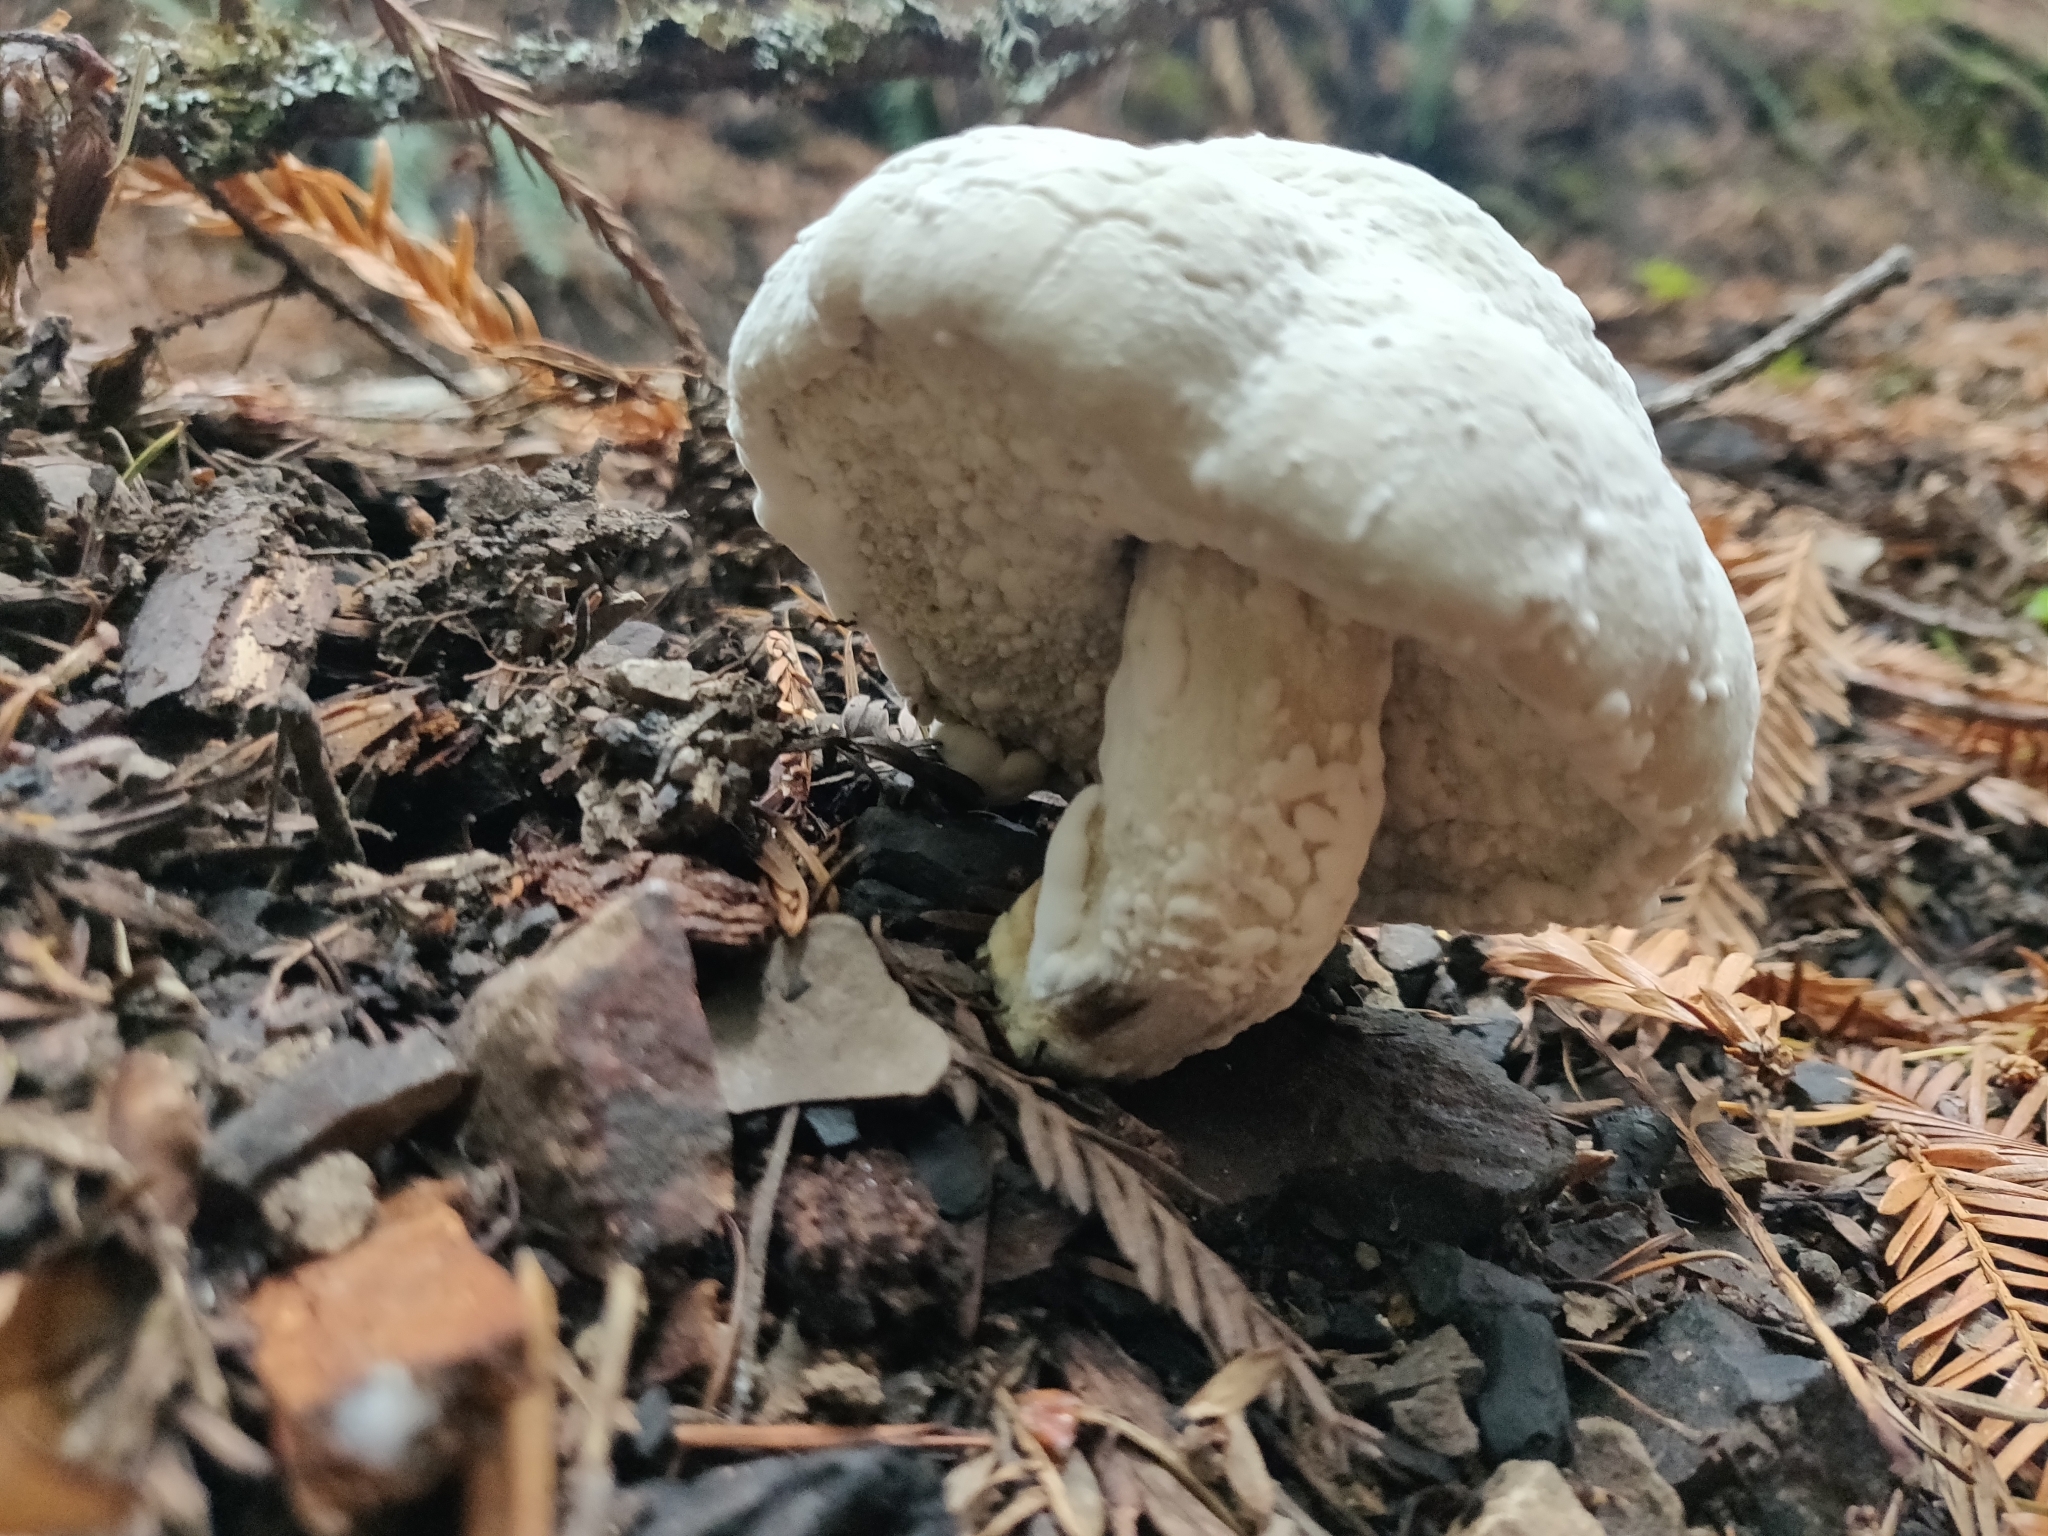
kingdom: Fungi
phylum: Ascomycota
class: Sordariomycetes
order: Hypocreales
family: Hypocreaceae
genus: Hypomyces
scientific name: Hypomyces microspermus
